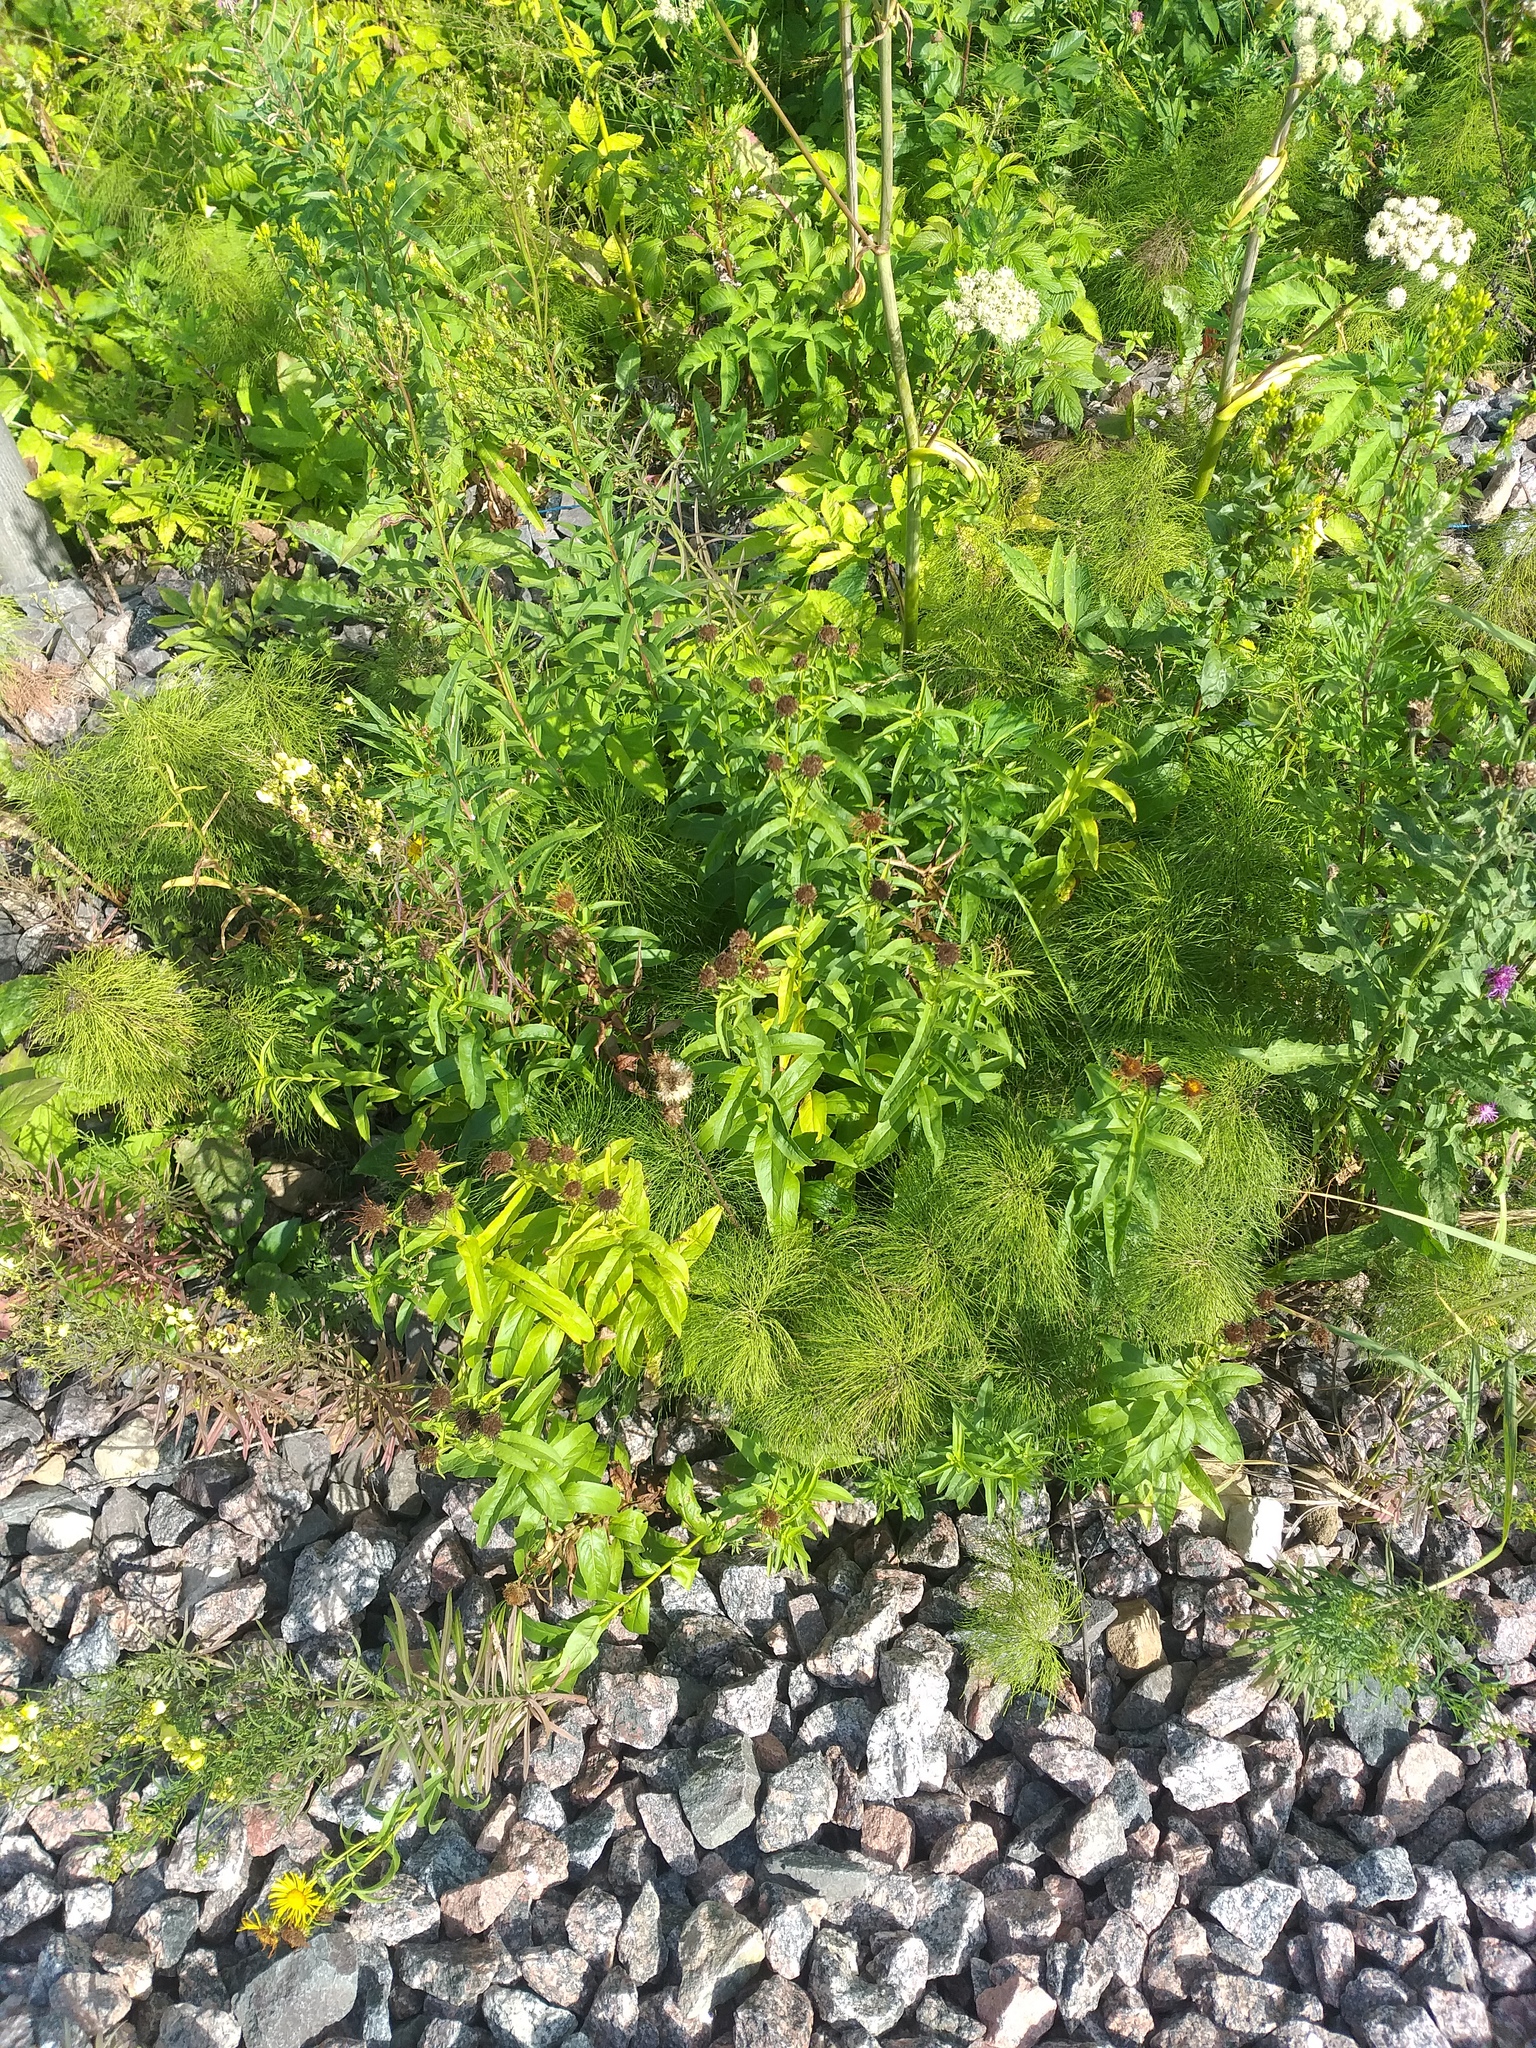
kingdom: Plantae
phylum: Tracheophyta
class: Magnoliopsida
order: Asterales
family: Asteraceae
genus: Pentanema
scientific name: Pentanema salicinum
